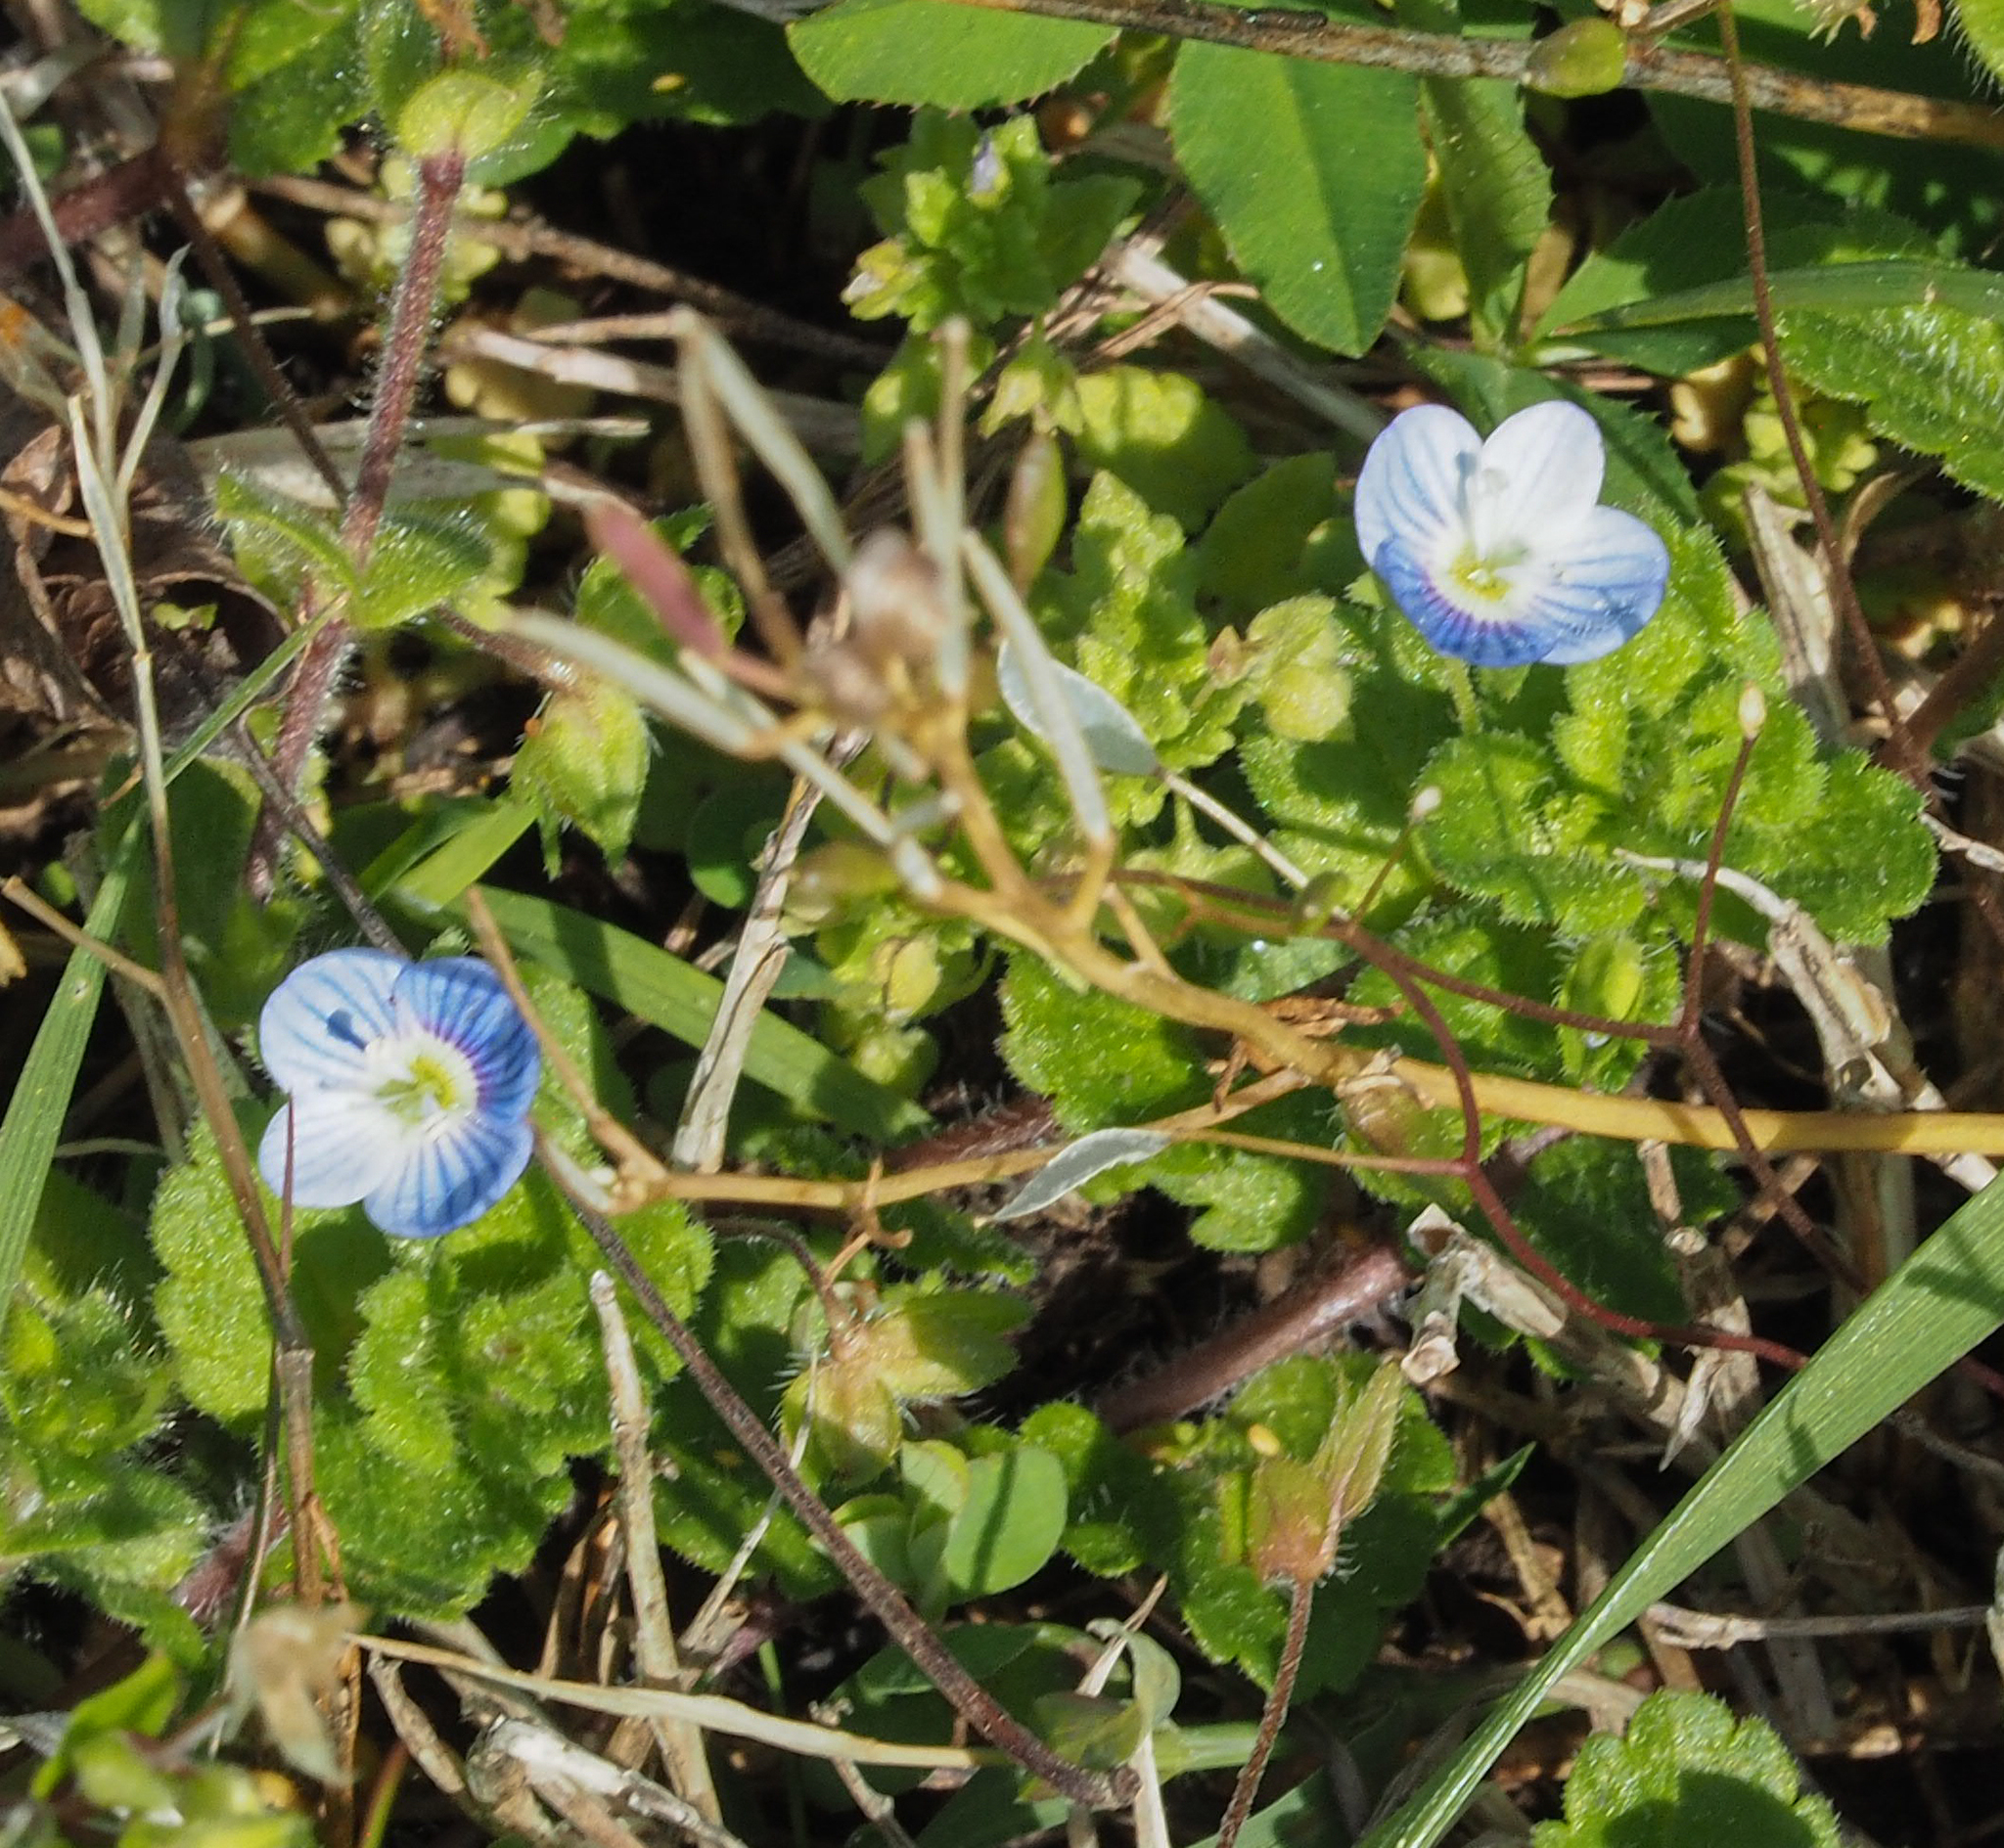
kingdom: Plantae
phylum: Tracheophyta
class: Magnoliopsida
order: Lamiales
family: Plantaginaceae
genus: Veronica
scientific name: Veronica persica
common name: Common field-speedwell
